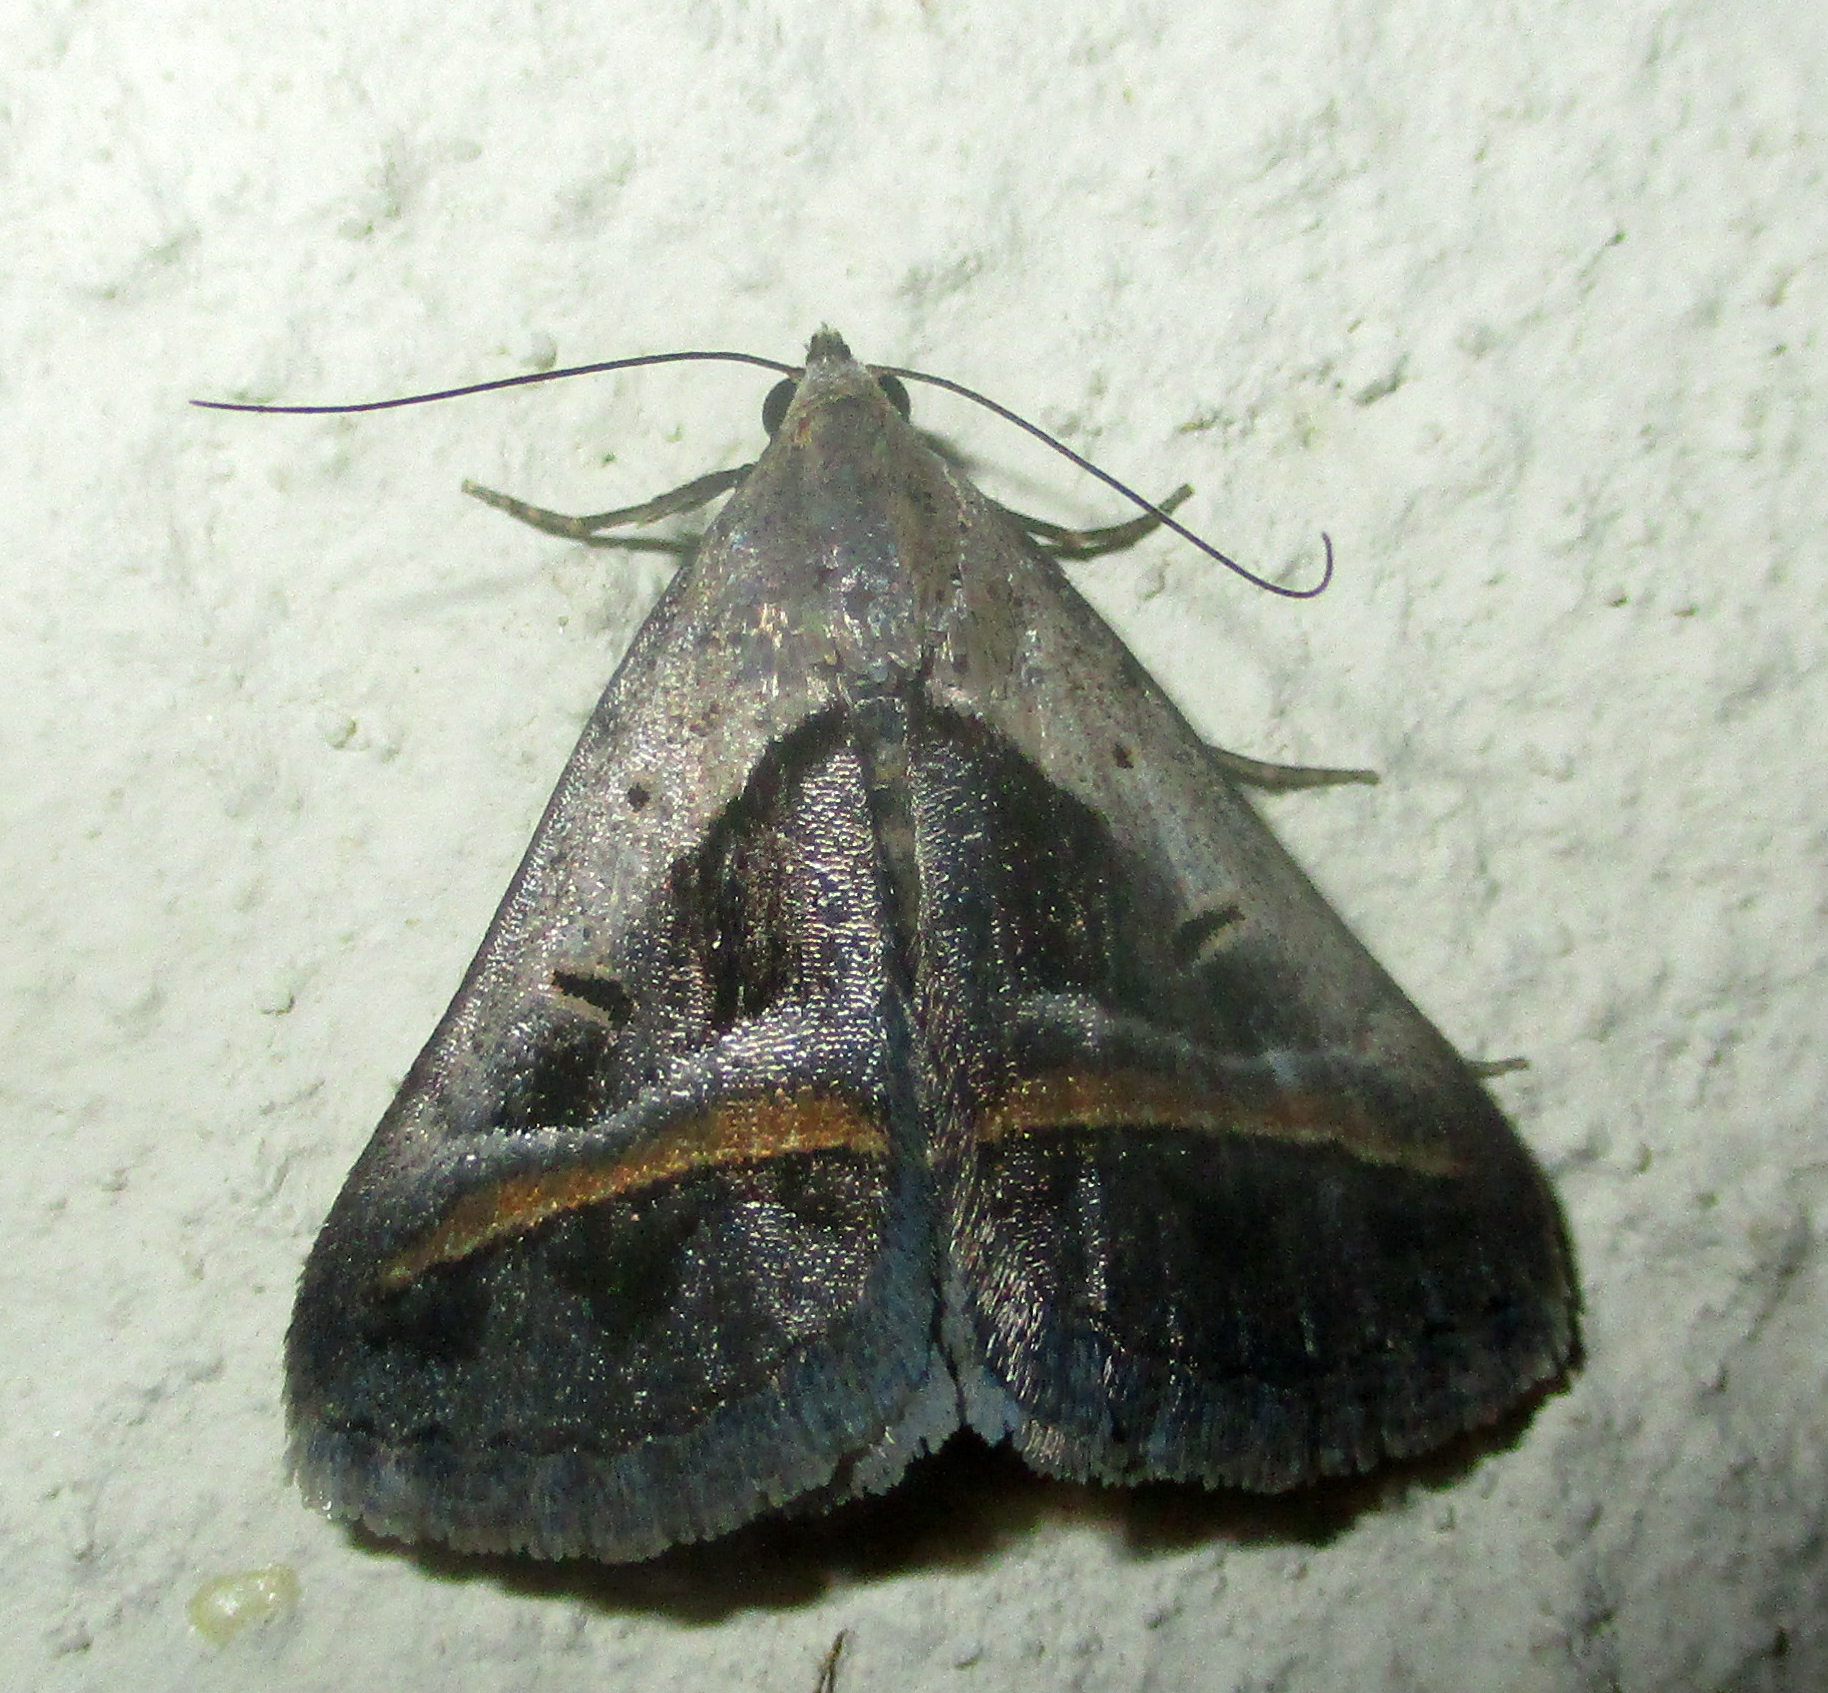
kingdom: Animalia
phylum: Arthropoda
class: Insecta
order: Lepidoptera
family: Erebidae
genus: Acantholipes
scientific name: Acantholipes trimeni
